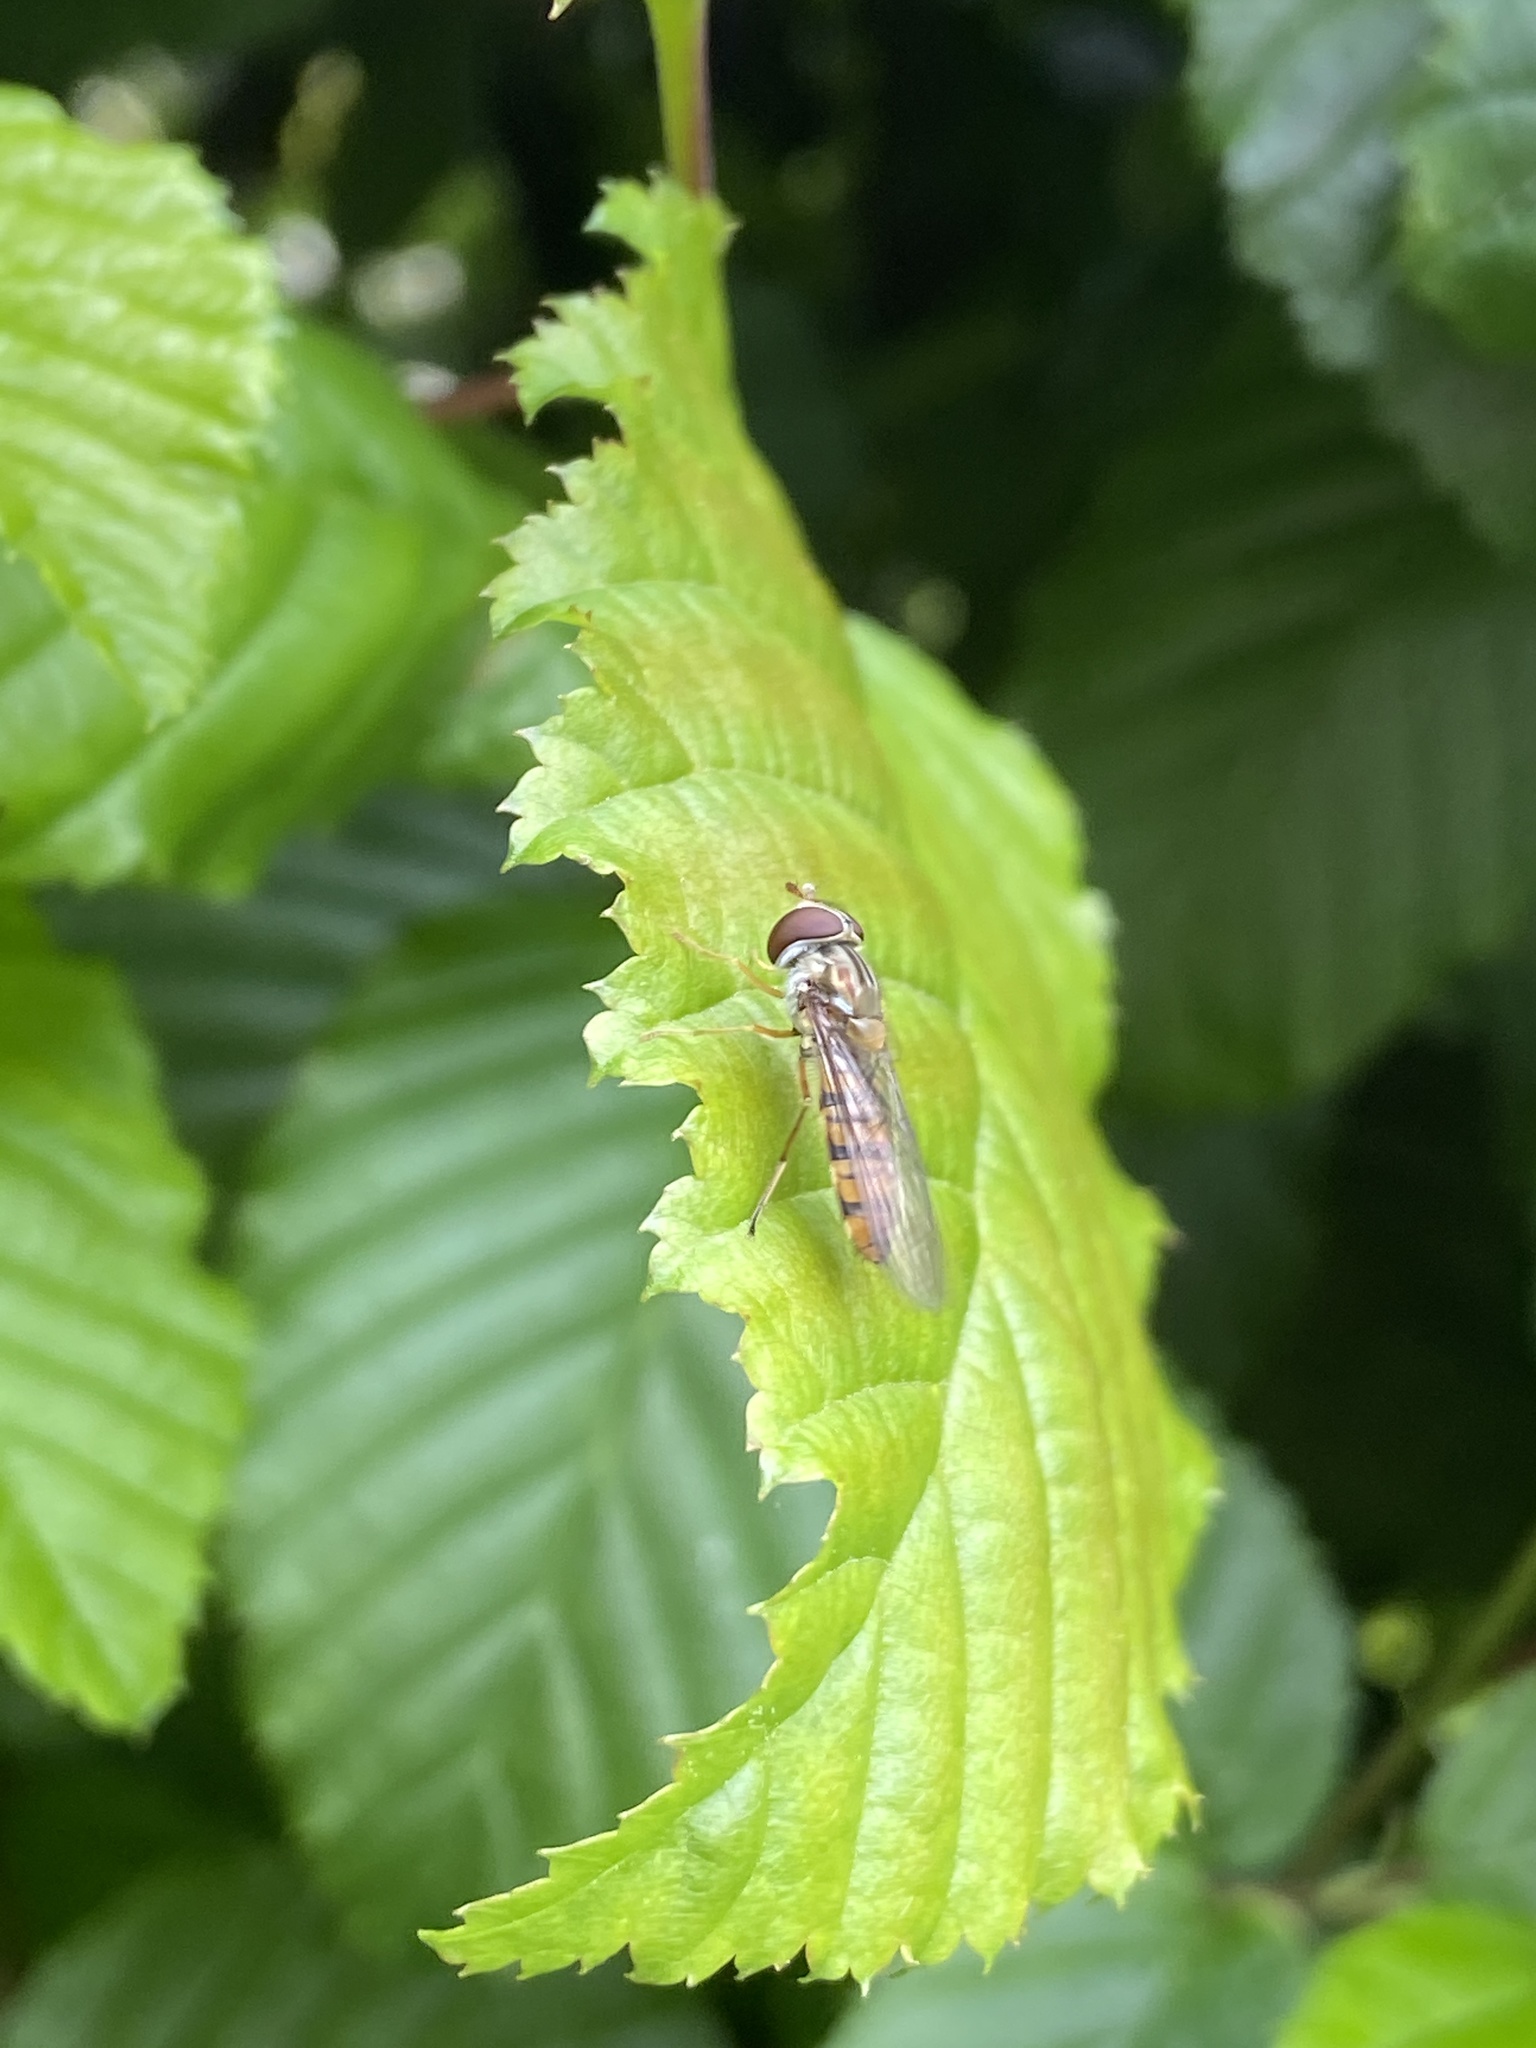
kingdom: Animalia
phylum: Arthropoda
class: Insecta
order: Diptera
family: Syrphidae
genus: Episyrphus
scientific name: Episyrphus balteatus
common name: Marmalade hoverfly
